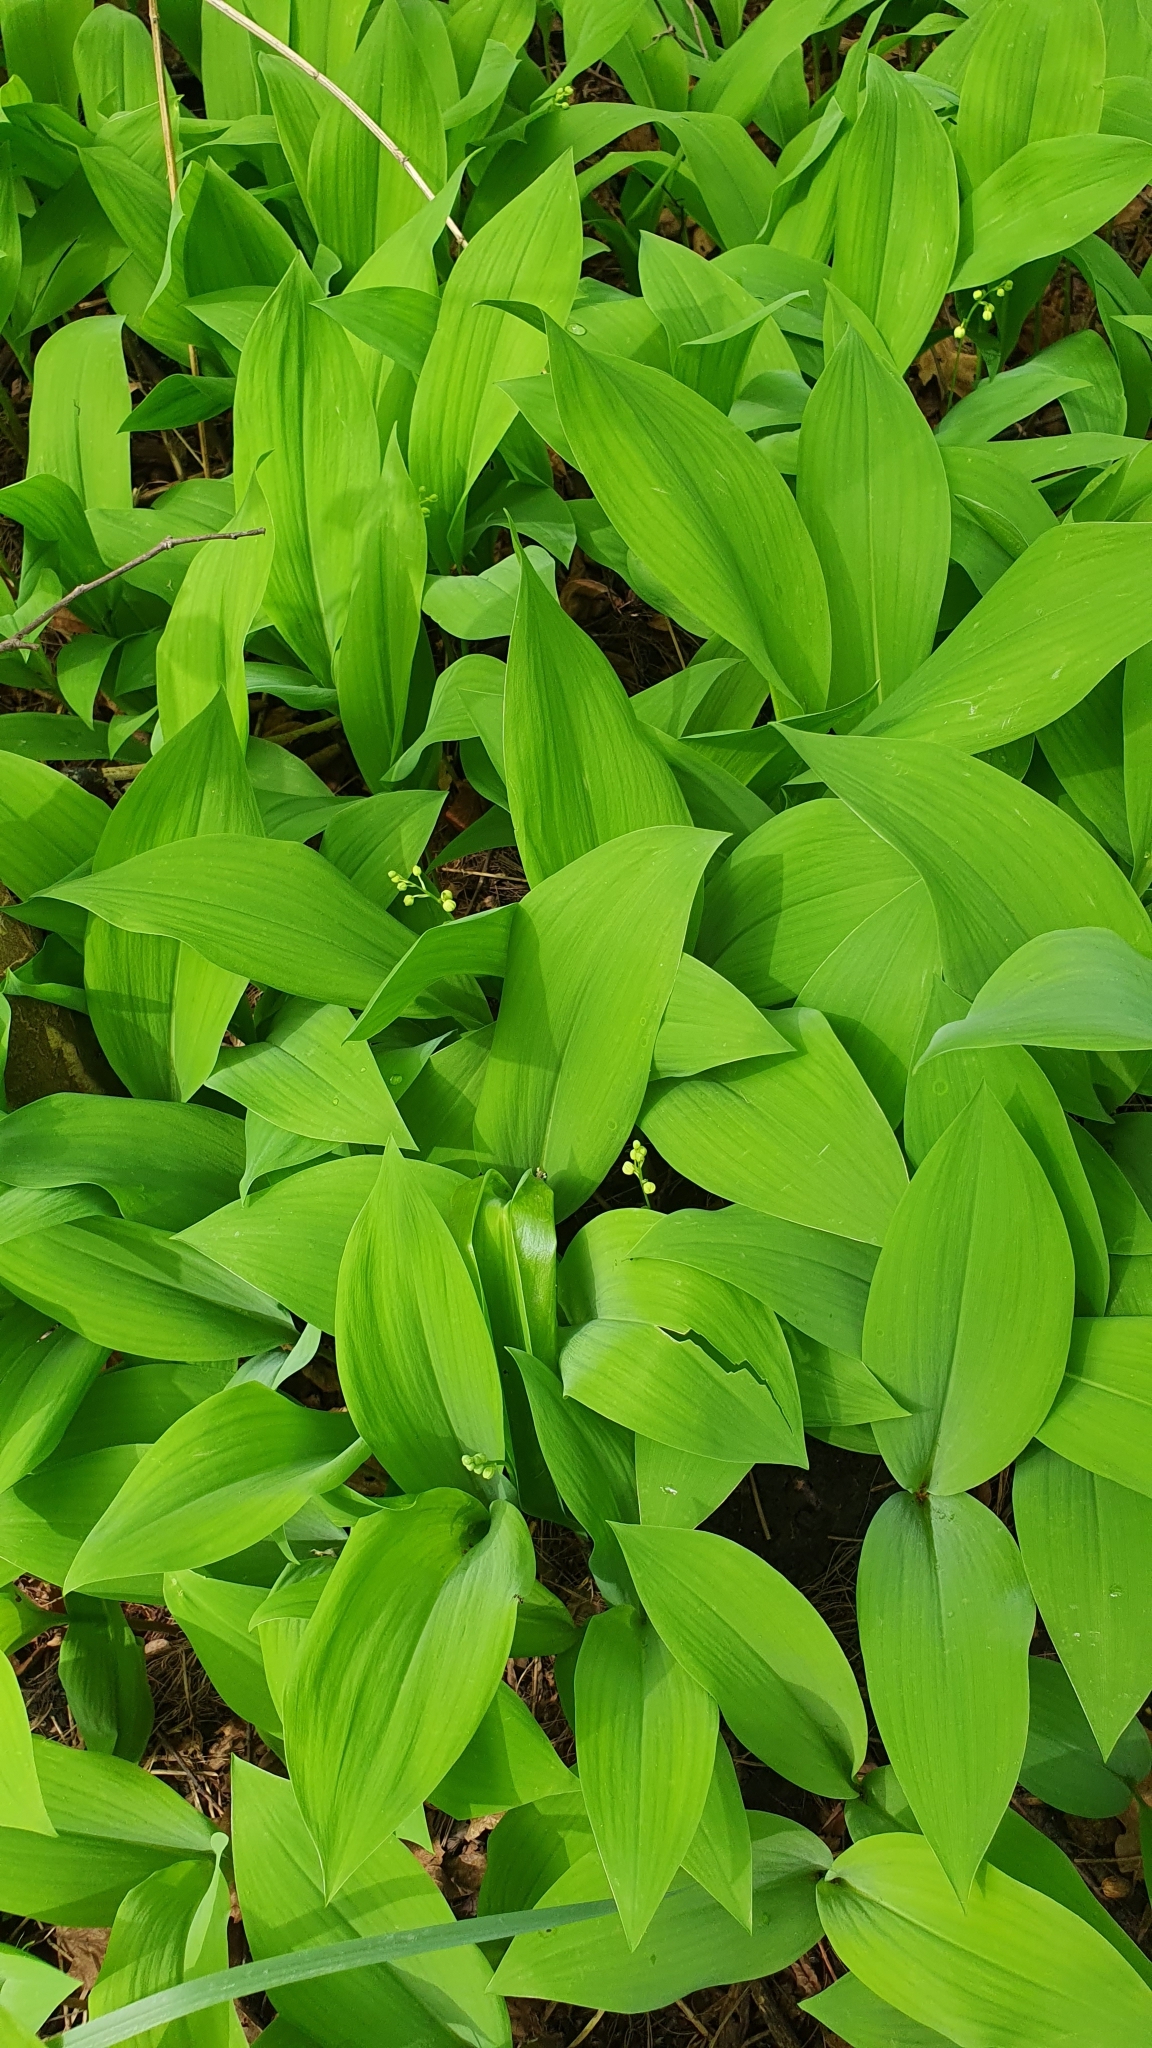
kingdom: Plantae
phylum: Tracheophyta
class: Liliopsida
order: Asparagales
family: Asparagaceae
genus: Convallaria
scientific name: Convallaria majalis
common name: Lily-of-the-valley
